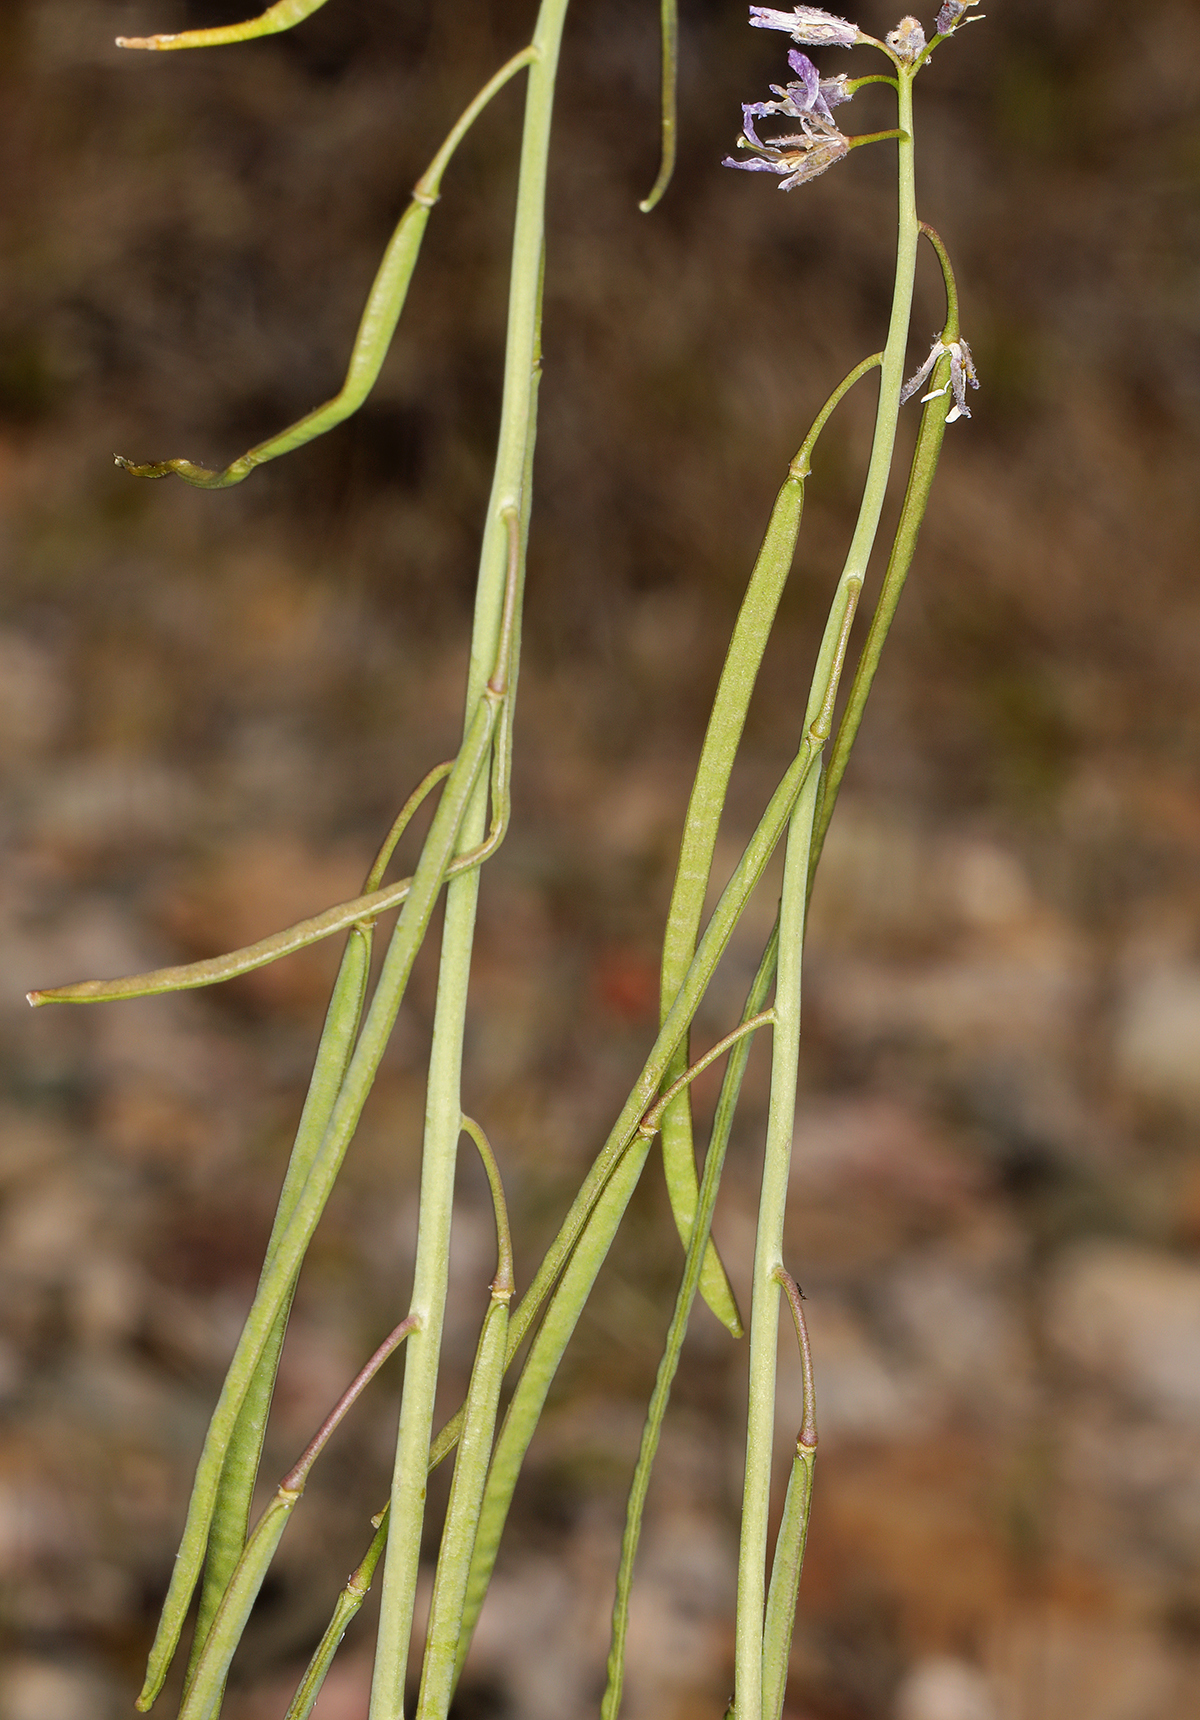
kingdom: Plantae
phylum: Tracheophyta
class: Magnoliopsida
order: Brassicales
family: Brassicaceae
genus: Boechera
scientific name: Boechera retrofracta
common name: Dangling suncress
